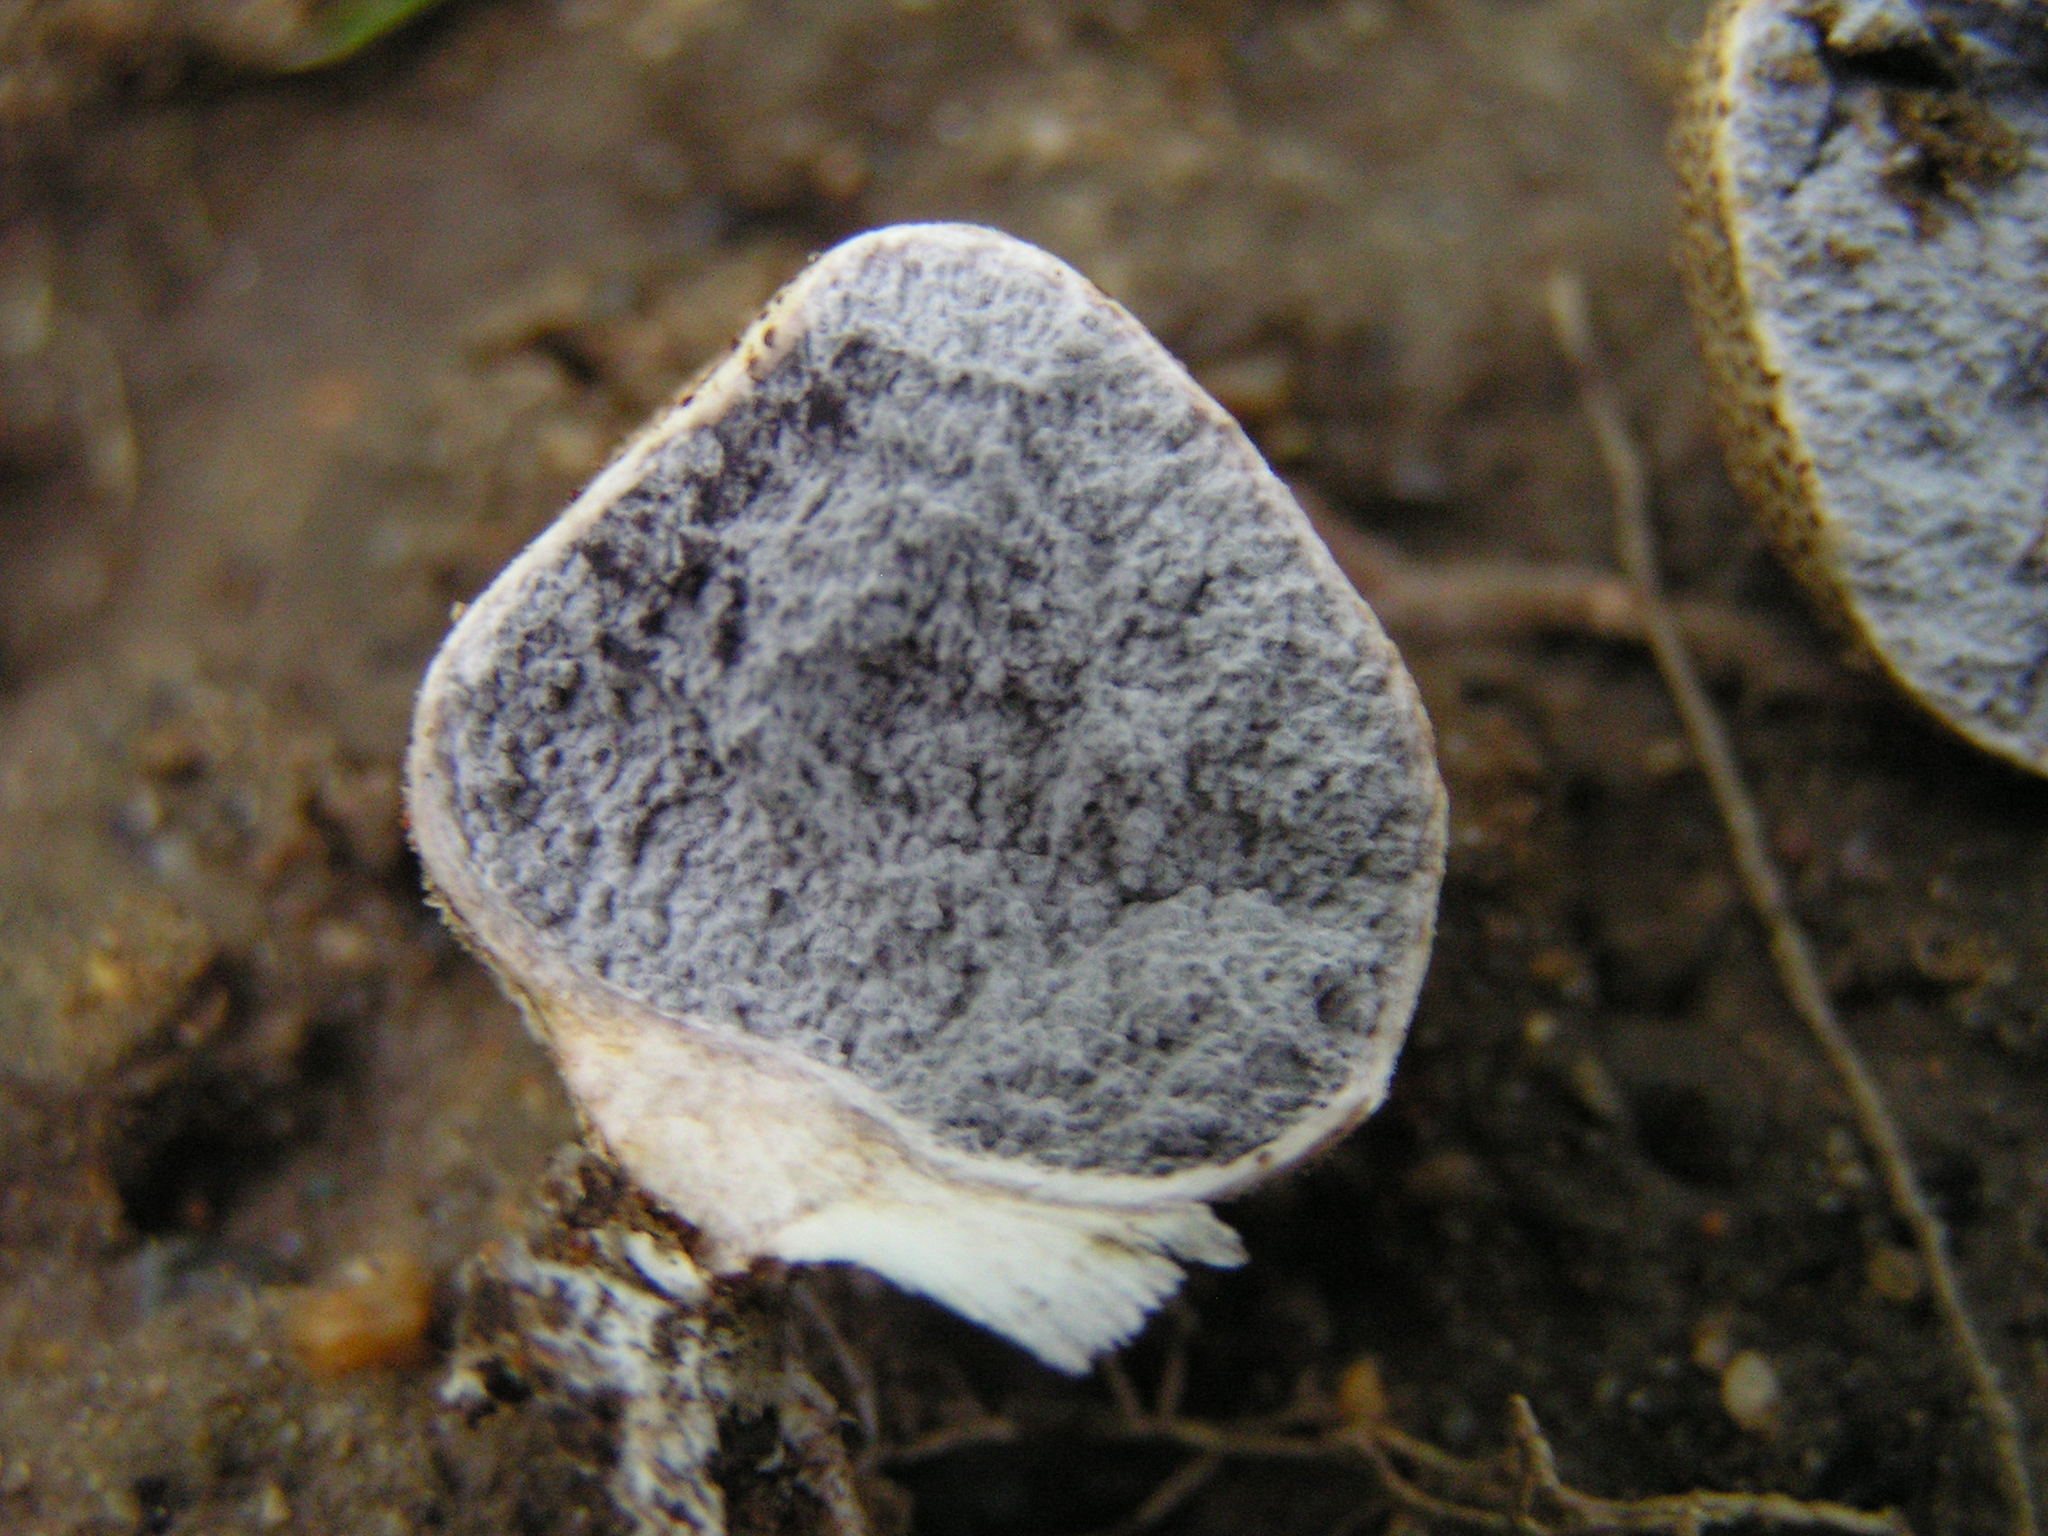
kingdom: Fungi
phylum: Basidiomycota
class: Agaricomycetes
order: Boletales
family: Sclerodermataceae
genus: Scleroderma
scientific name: Scleroderma citrinum
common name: Common earthball
